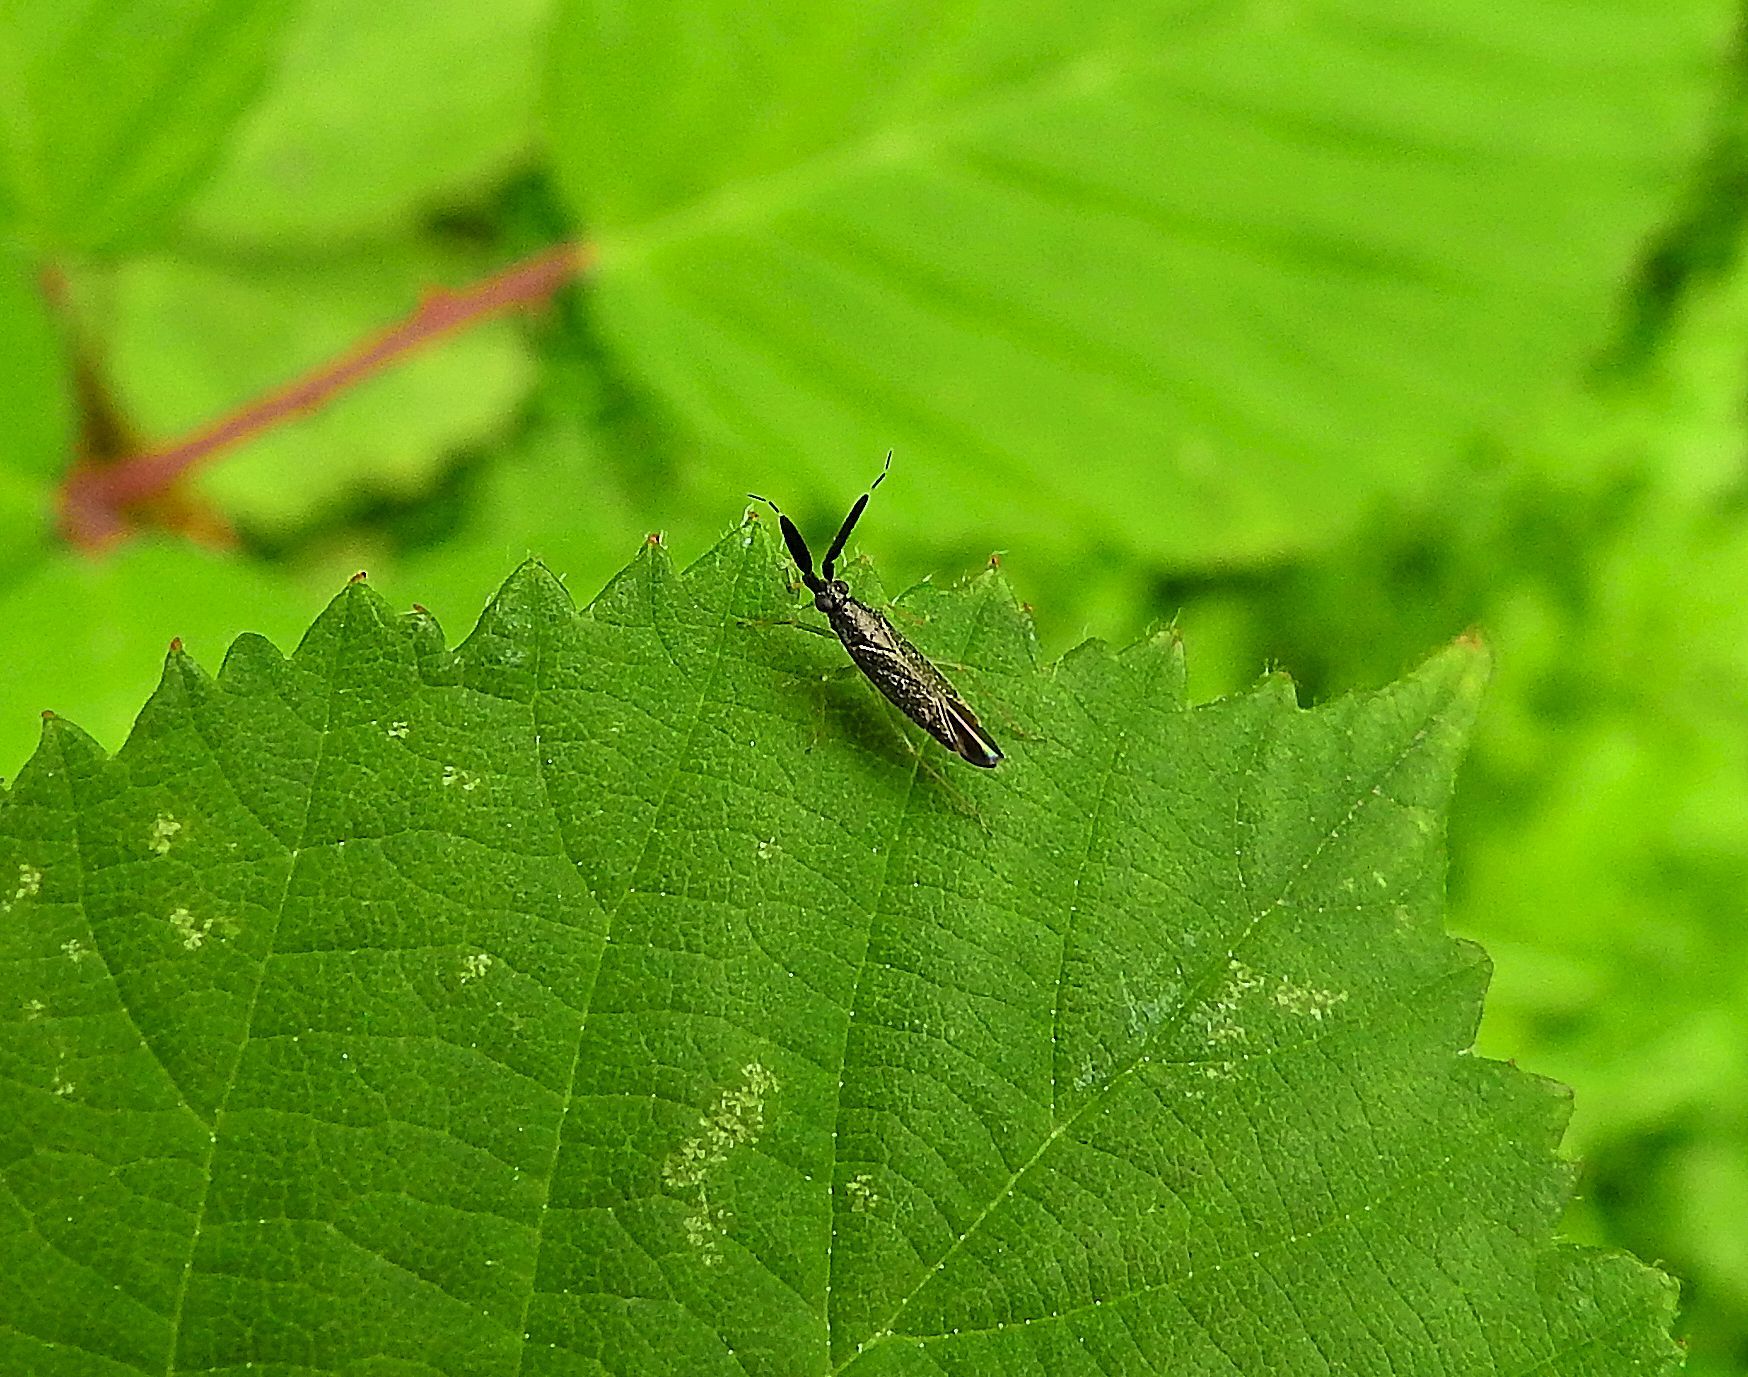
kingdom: Animalia
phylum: Arthropoda
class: Insecta
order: Hemiptera
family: Miridae
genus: Heterotoma
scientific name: Heterotoma planicornis
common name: Plant bug
